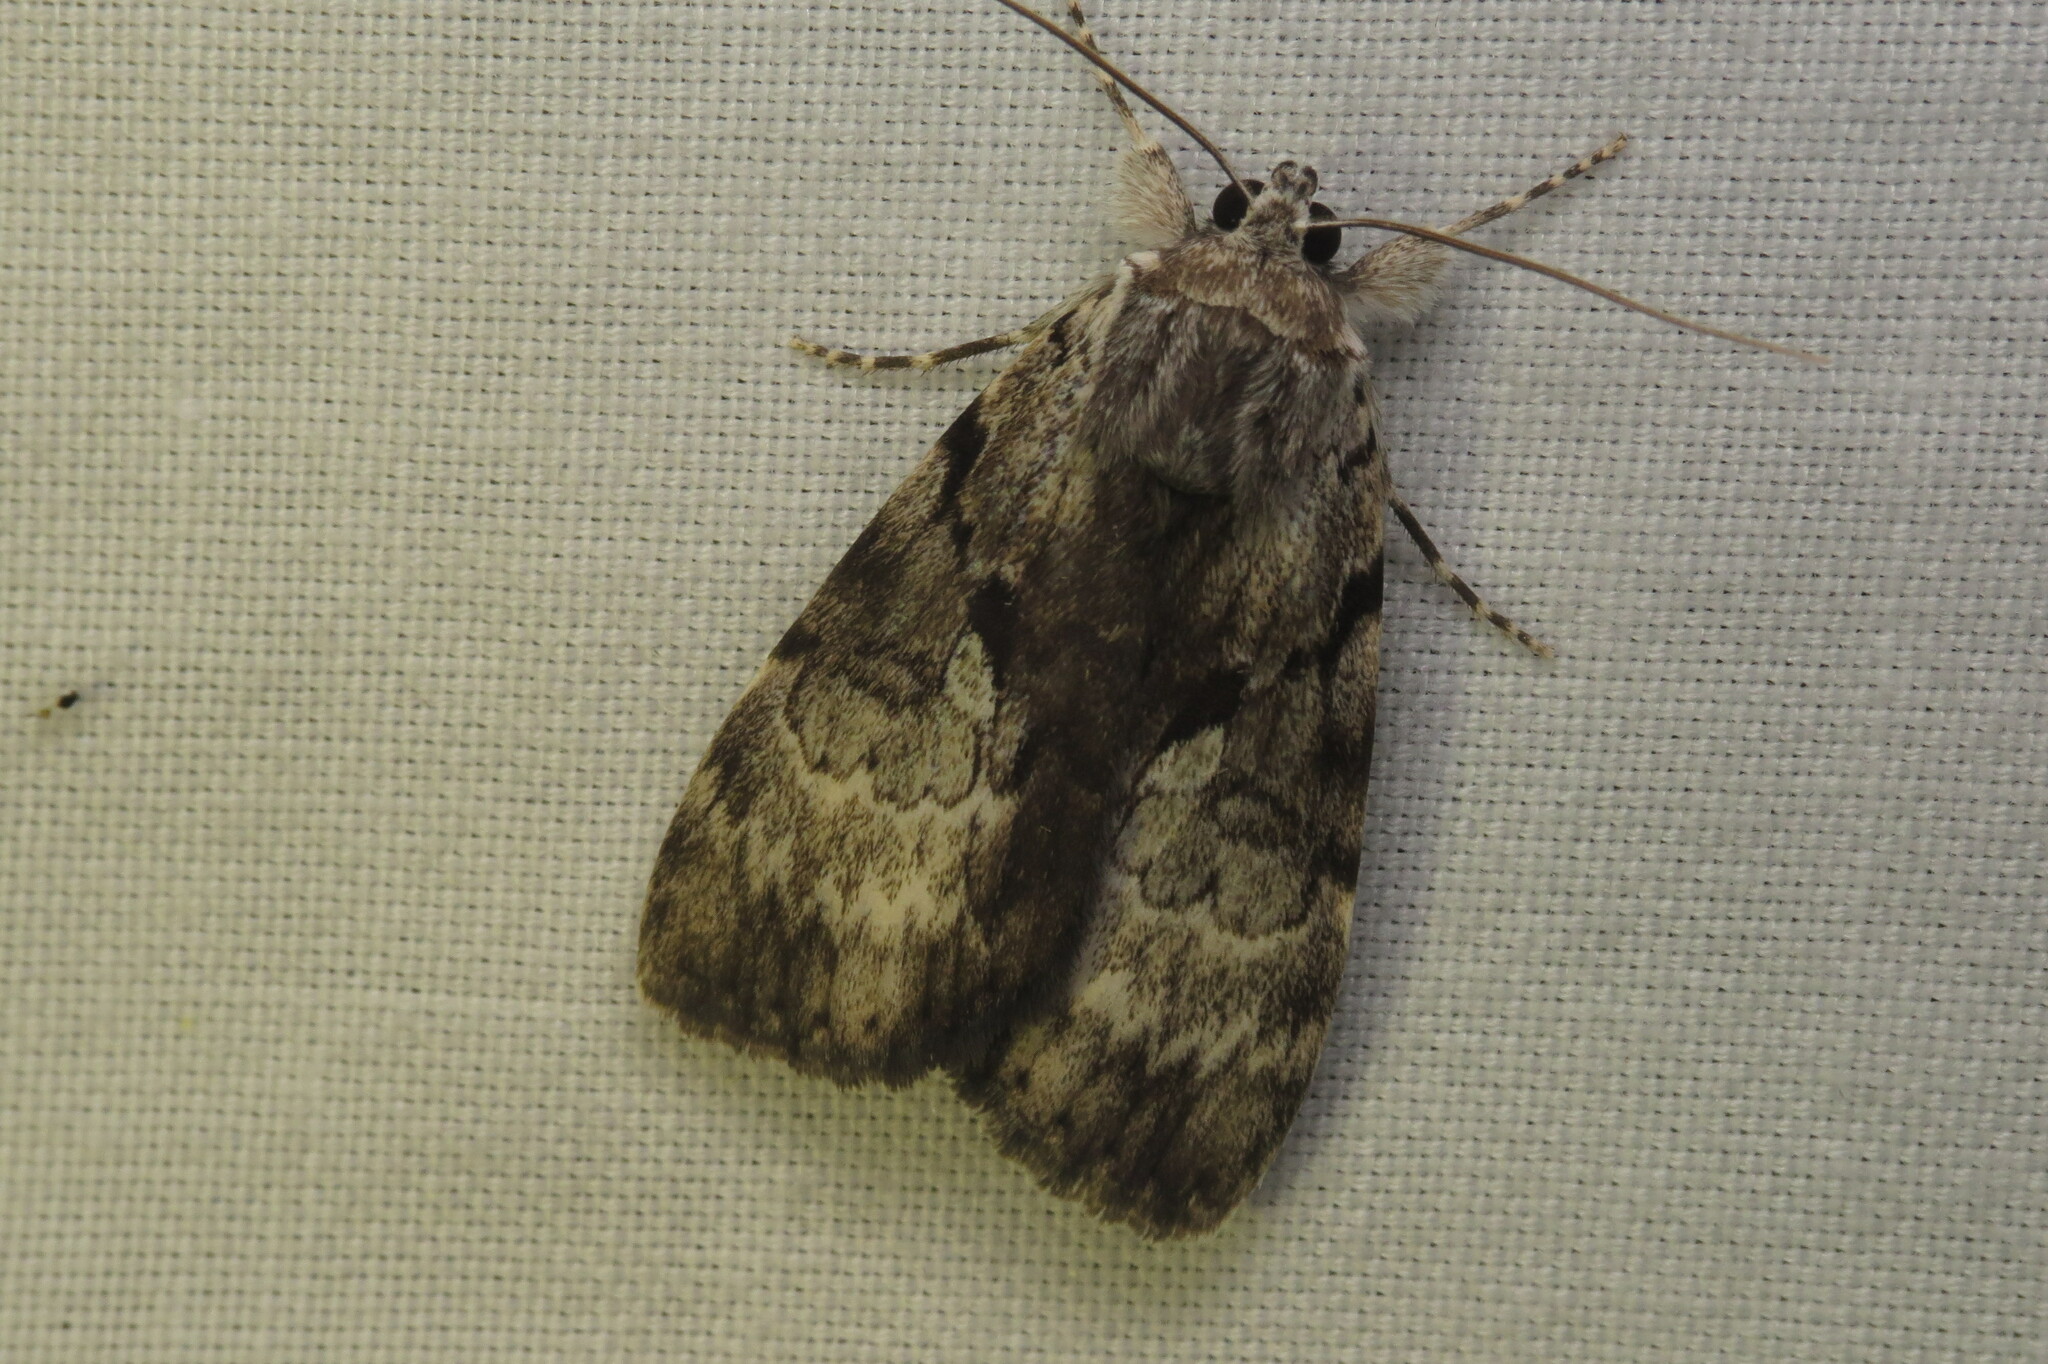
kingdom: Animalia
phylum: Arthropoda
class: Insecta
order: Lepidoptera
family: Erebidae
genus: Catocala
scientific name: Catocala andromedae
